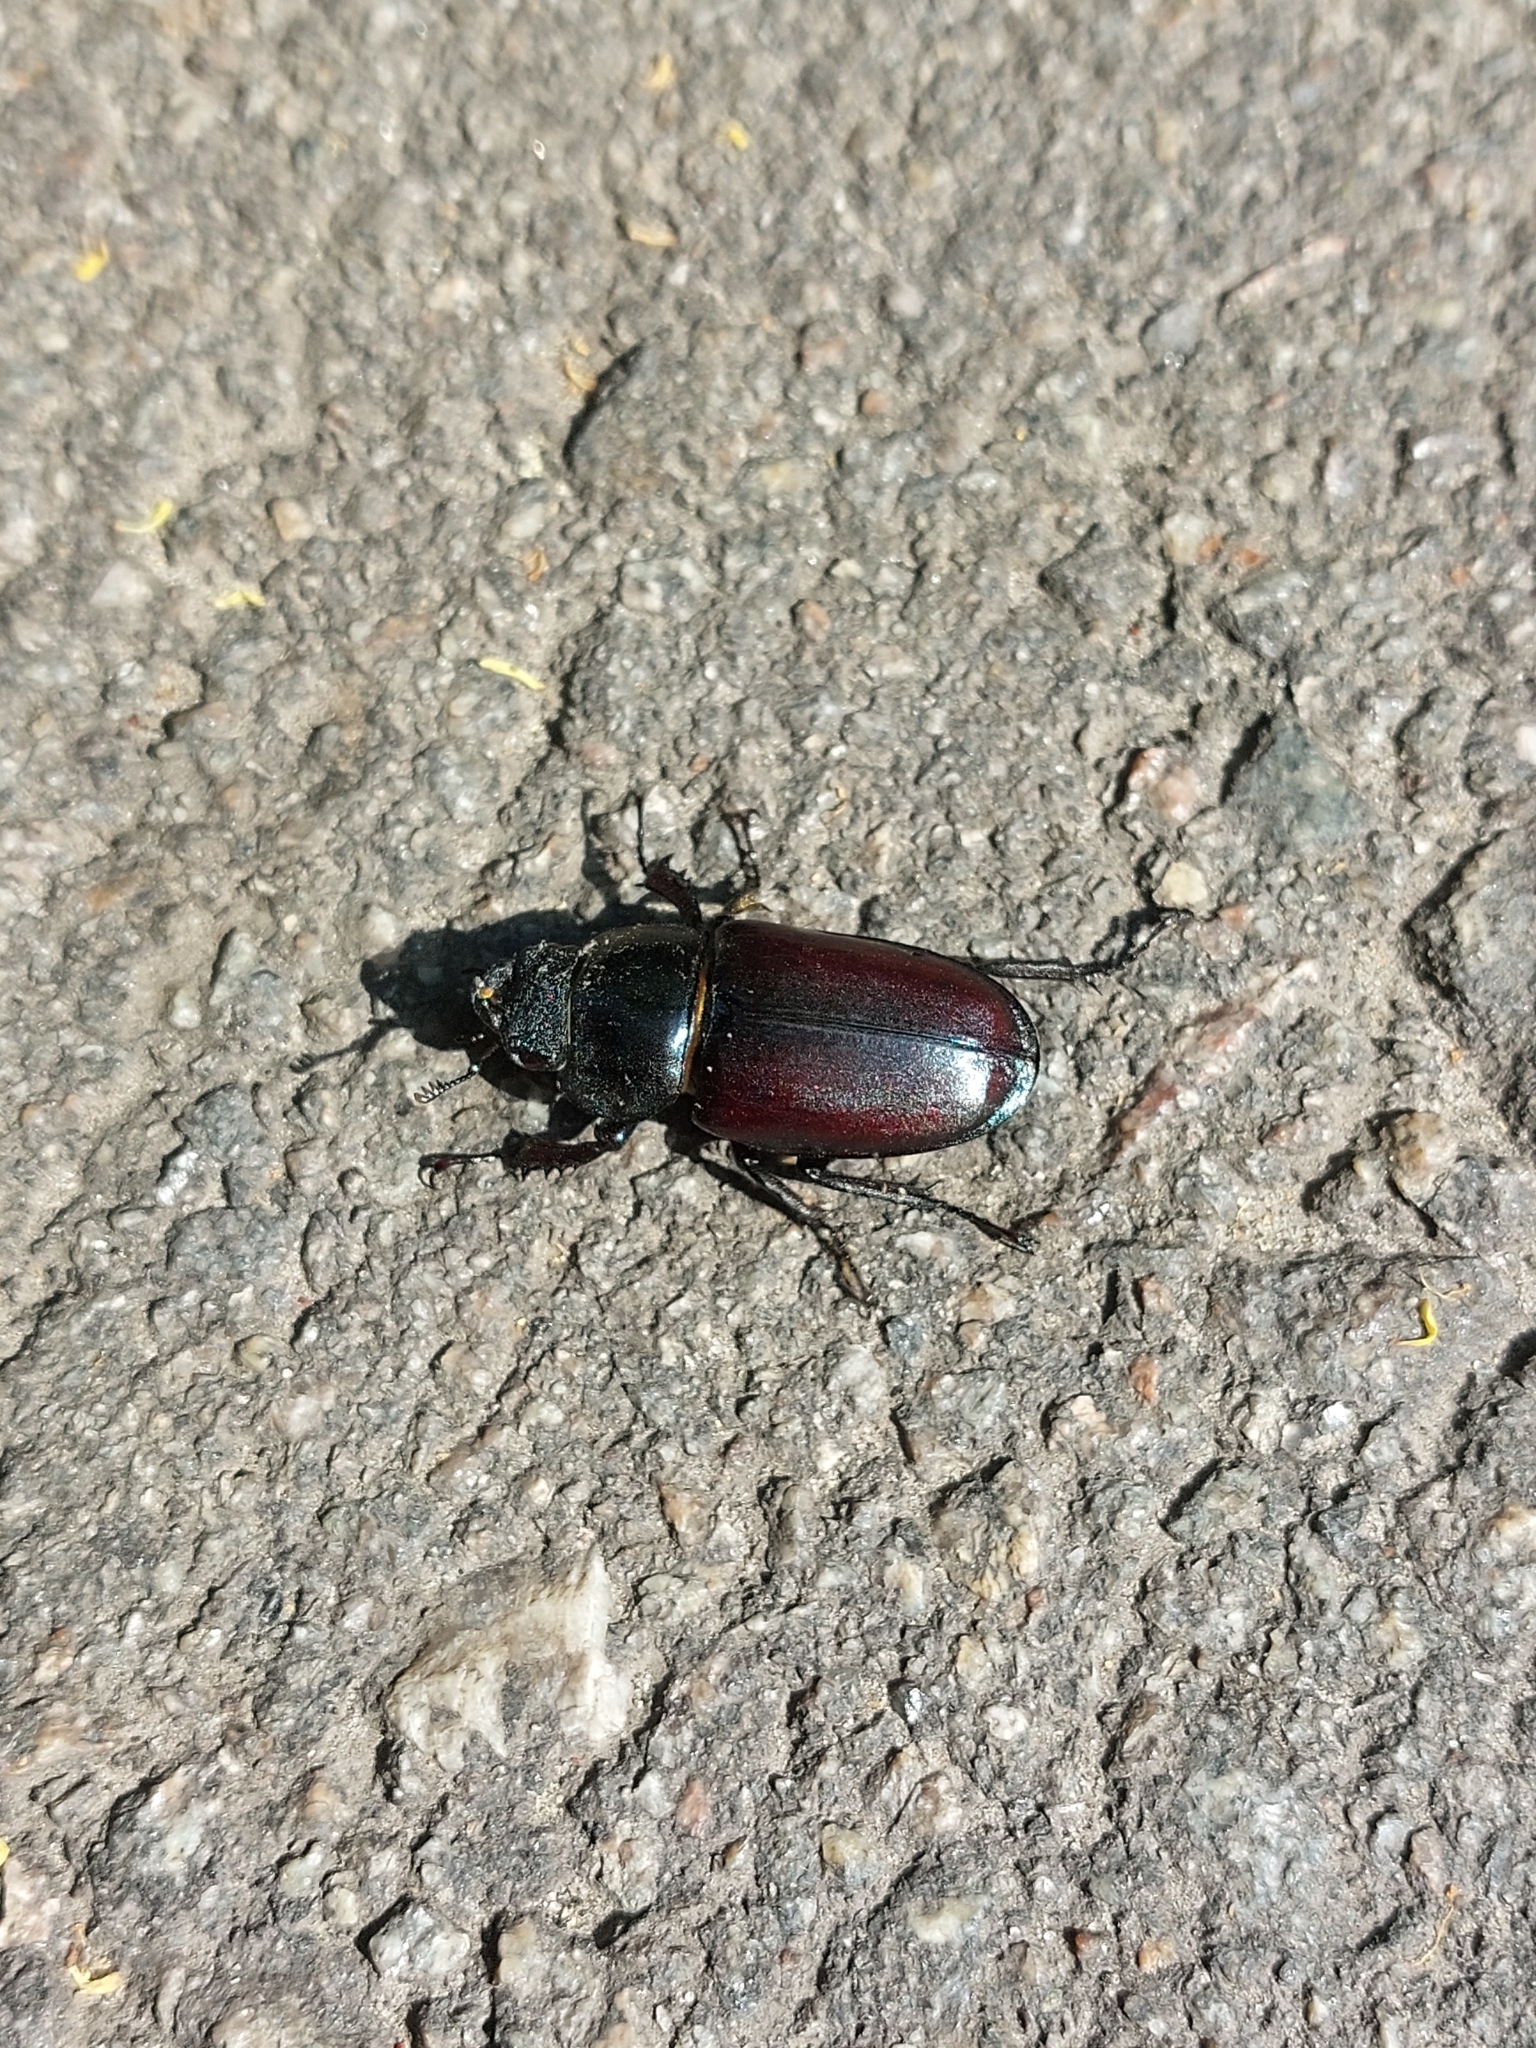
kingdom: Animalia
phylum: Arthropoda
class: Insecta
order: Coleoptera
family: Lucanidae
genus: Lucanus
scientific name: Lucanus cervus
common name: Stag beetle
